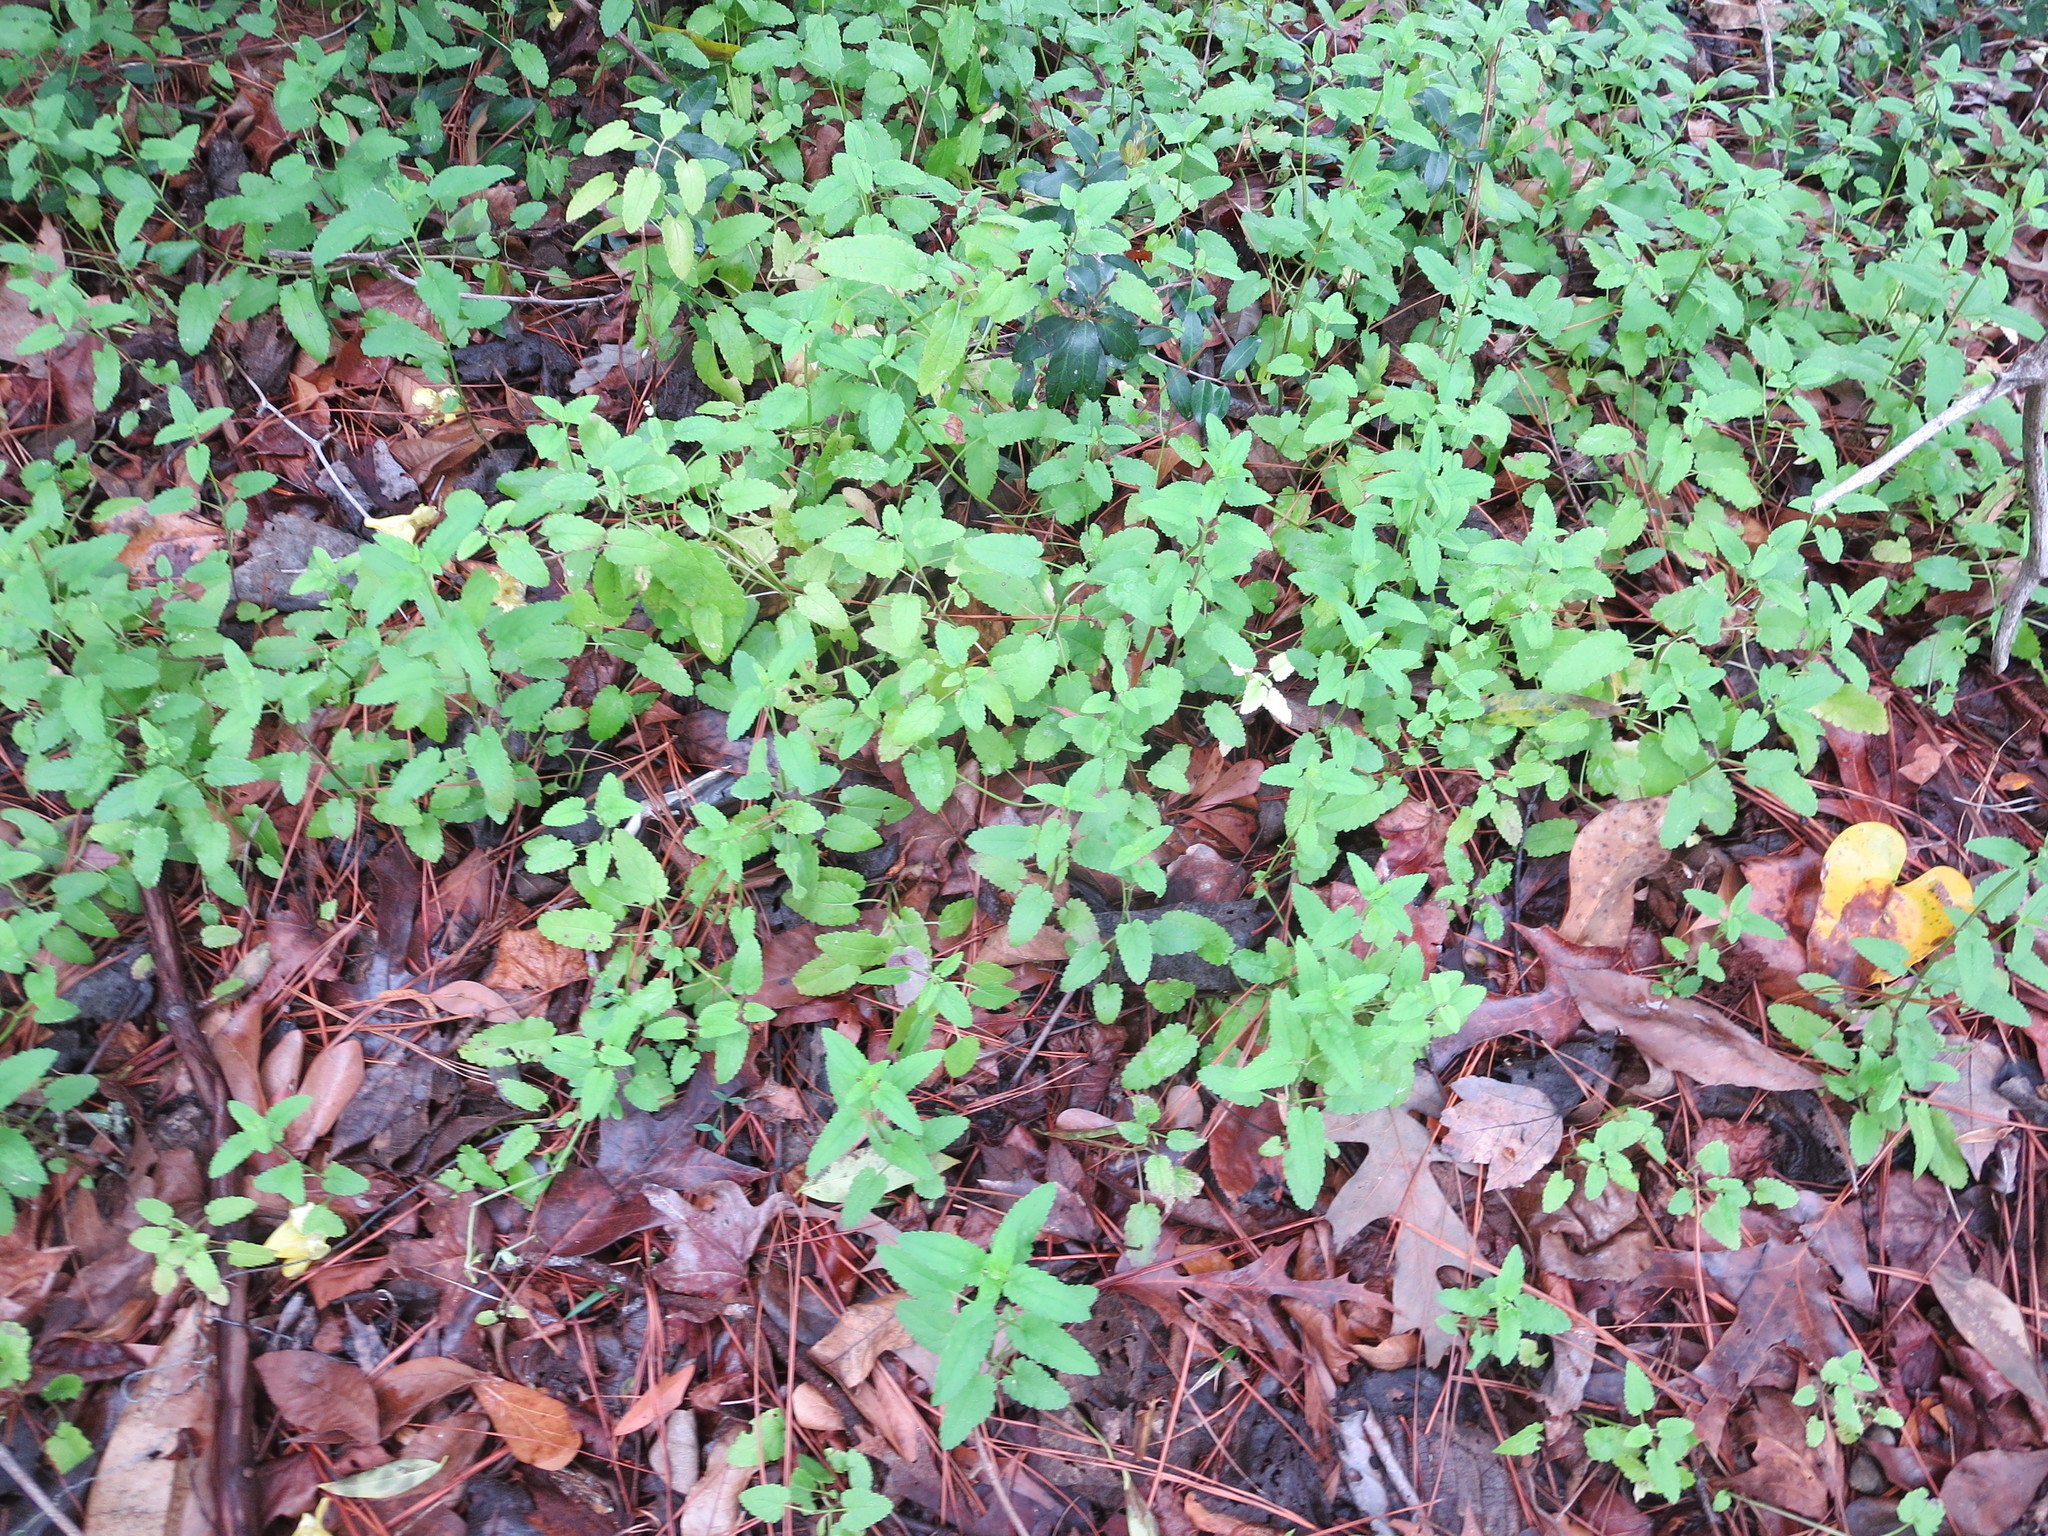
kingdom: Plantae
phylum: Tracheophyta
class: Magnoliopsida
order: Lamiales
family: Lamiaceae
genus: Stachys
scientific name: Stachys floridana
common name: Florida betony
